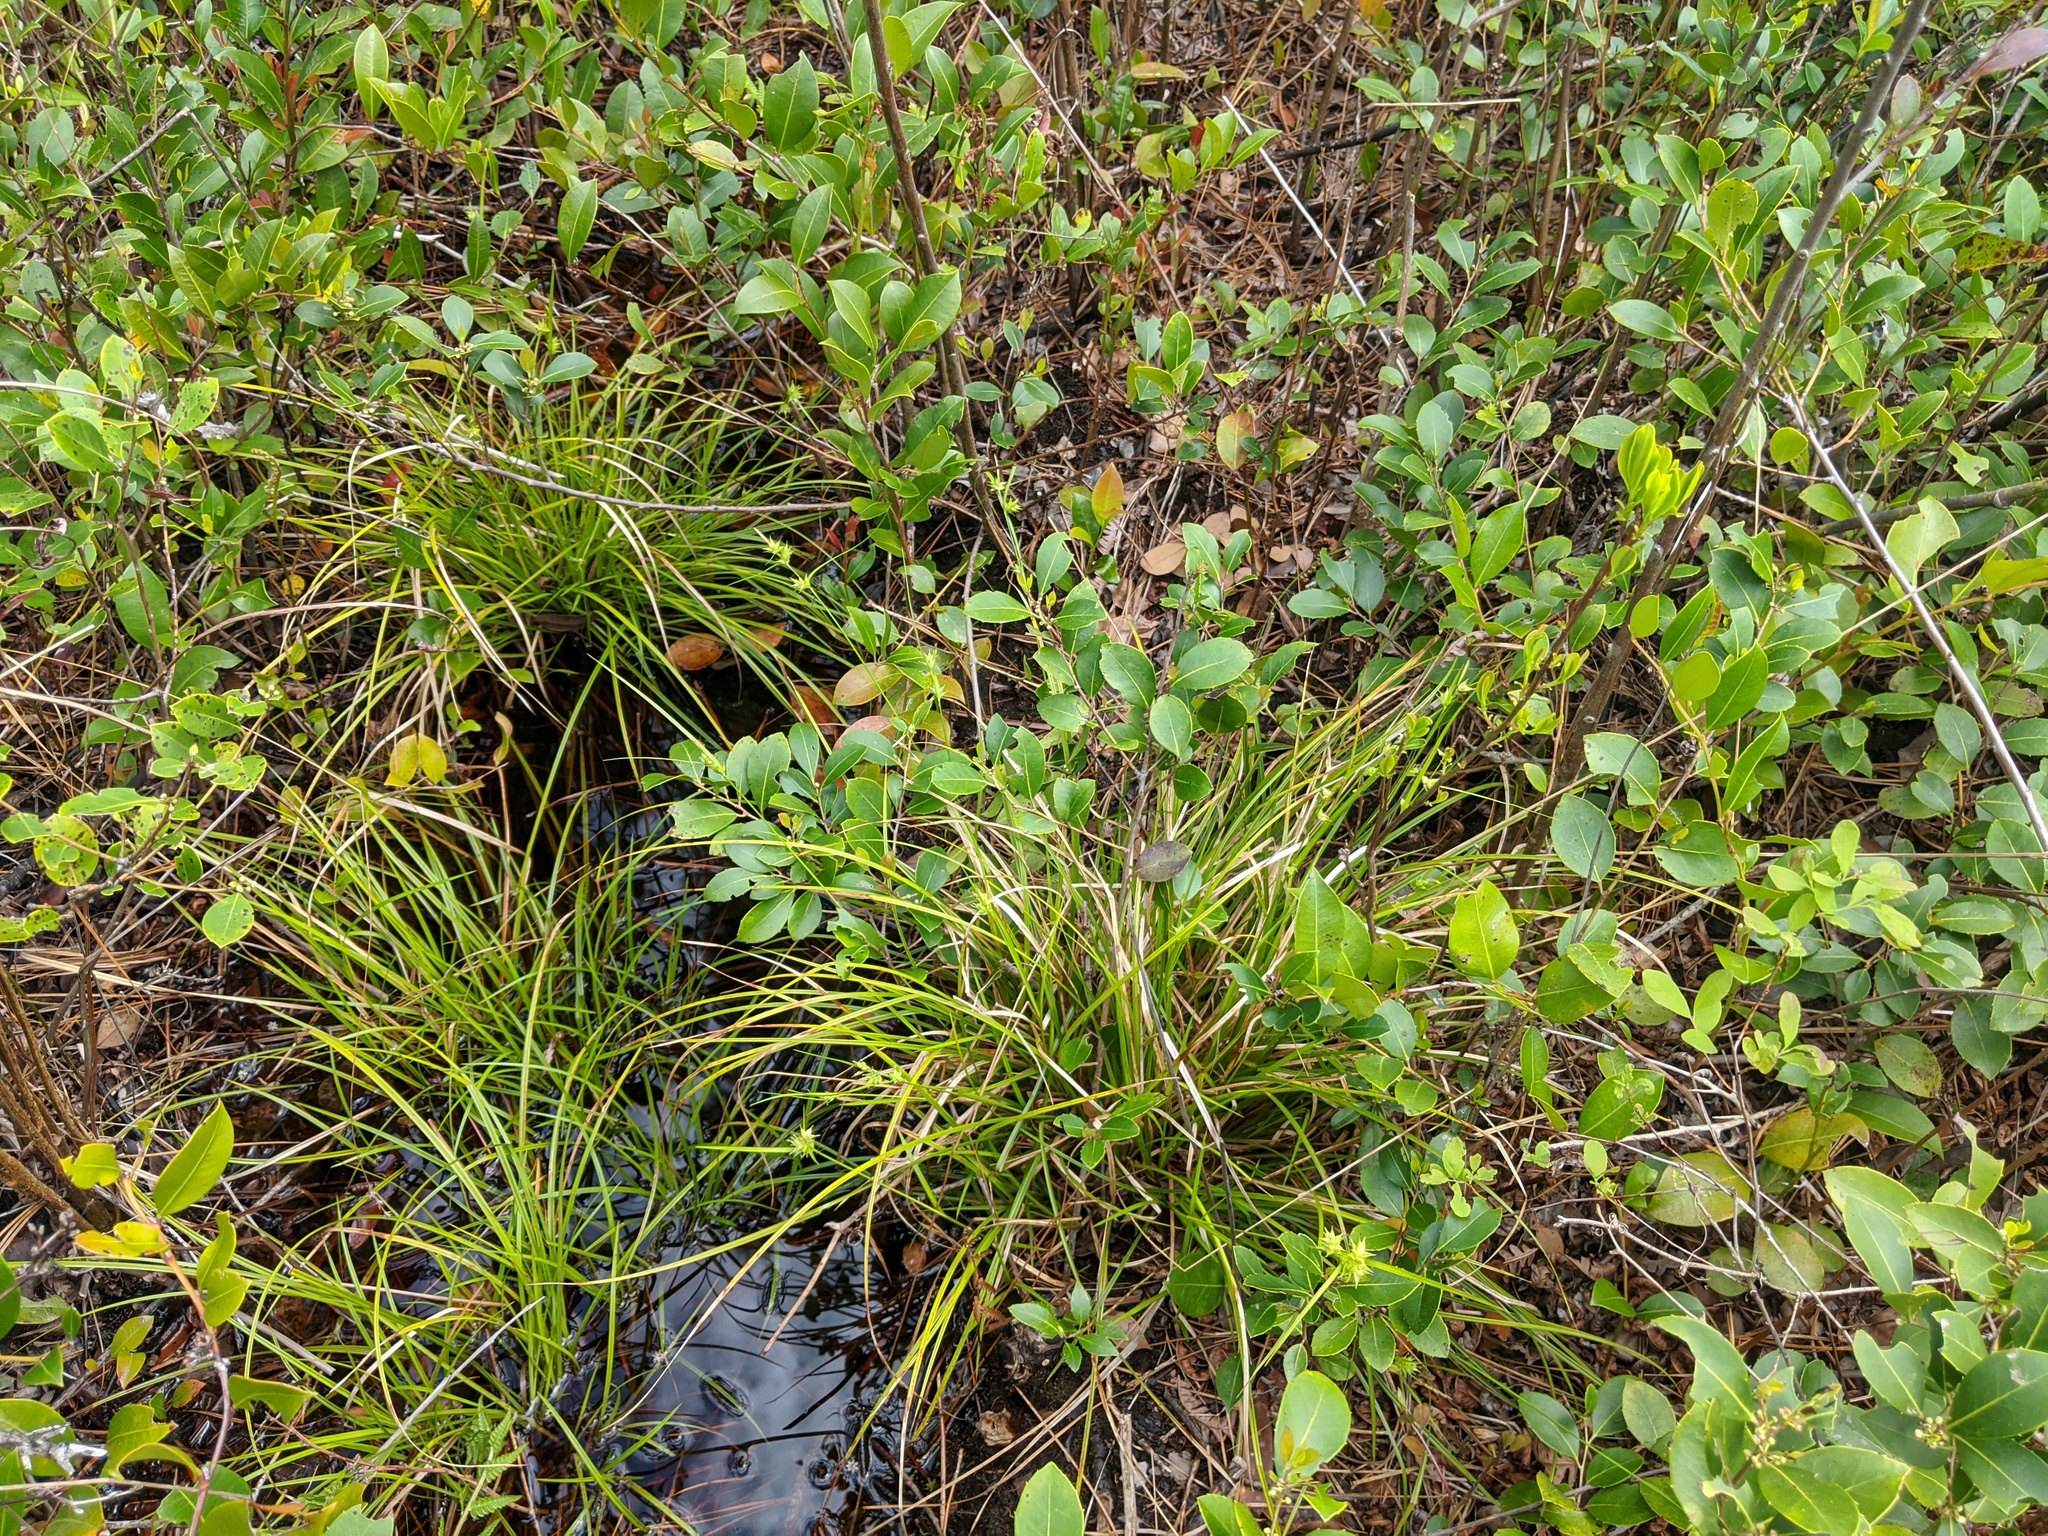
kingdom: Plantae
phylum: Tracheophyta
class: Liliopsida
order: Poales
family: Cyperaceae
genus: Carex
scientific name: Carex elliottii
